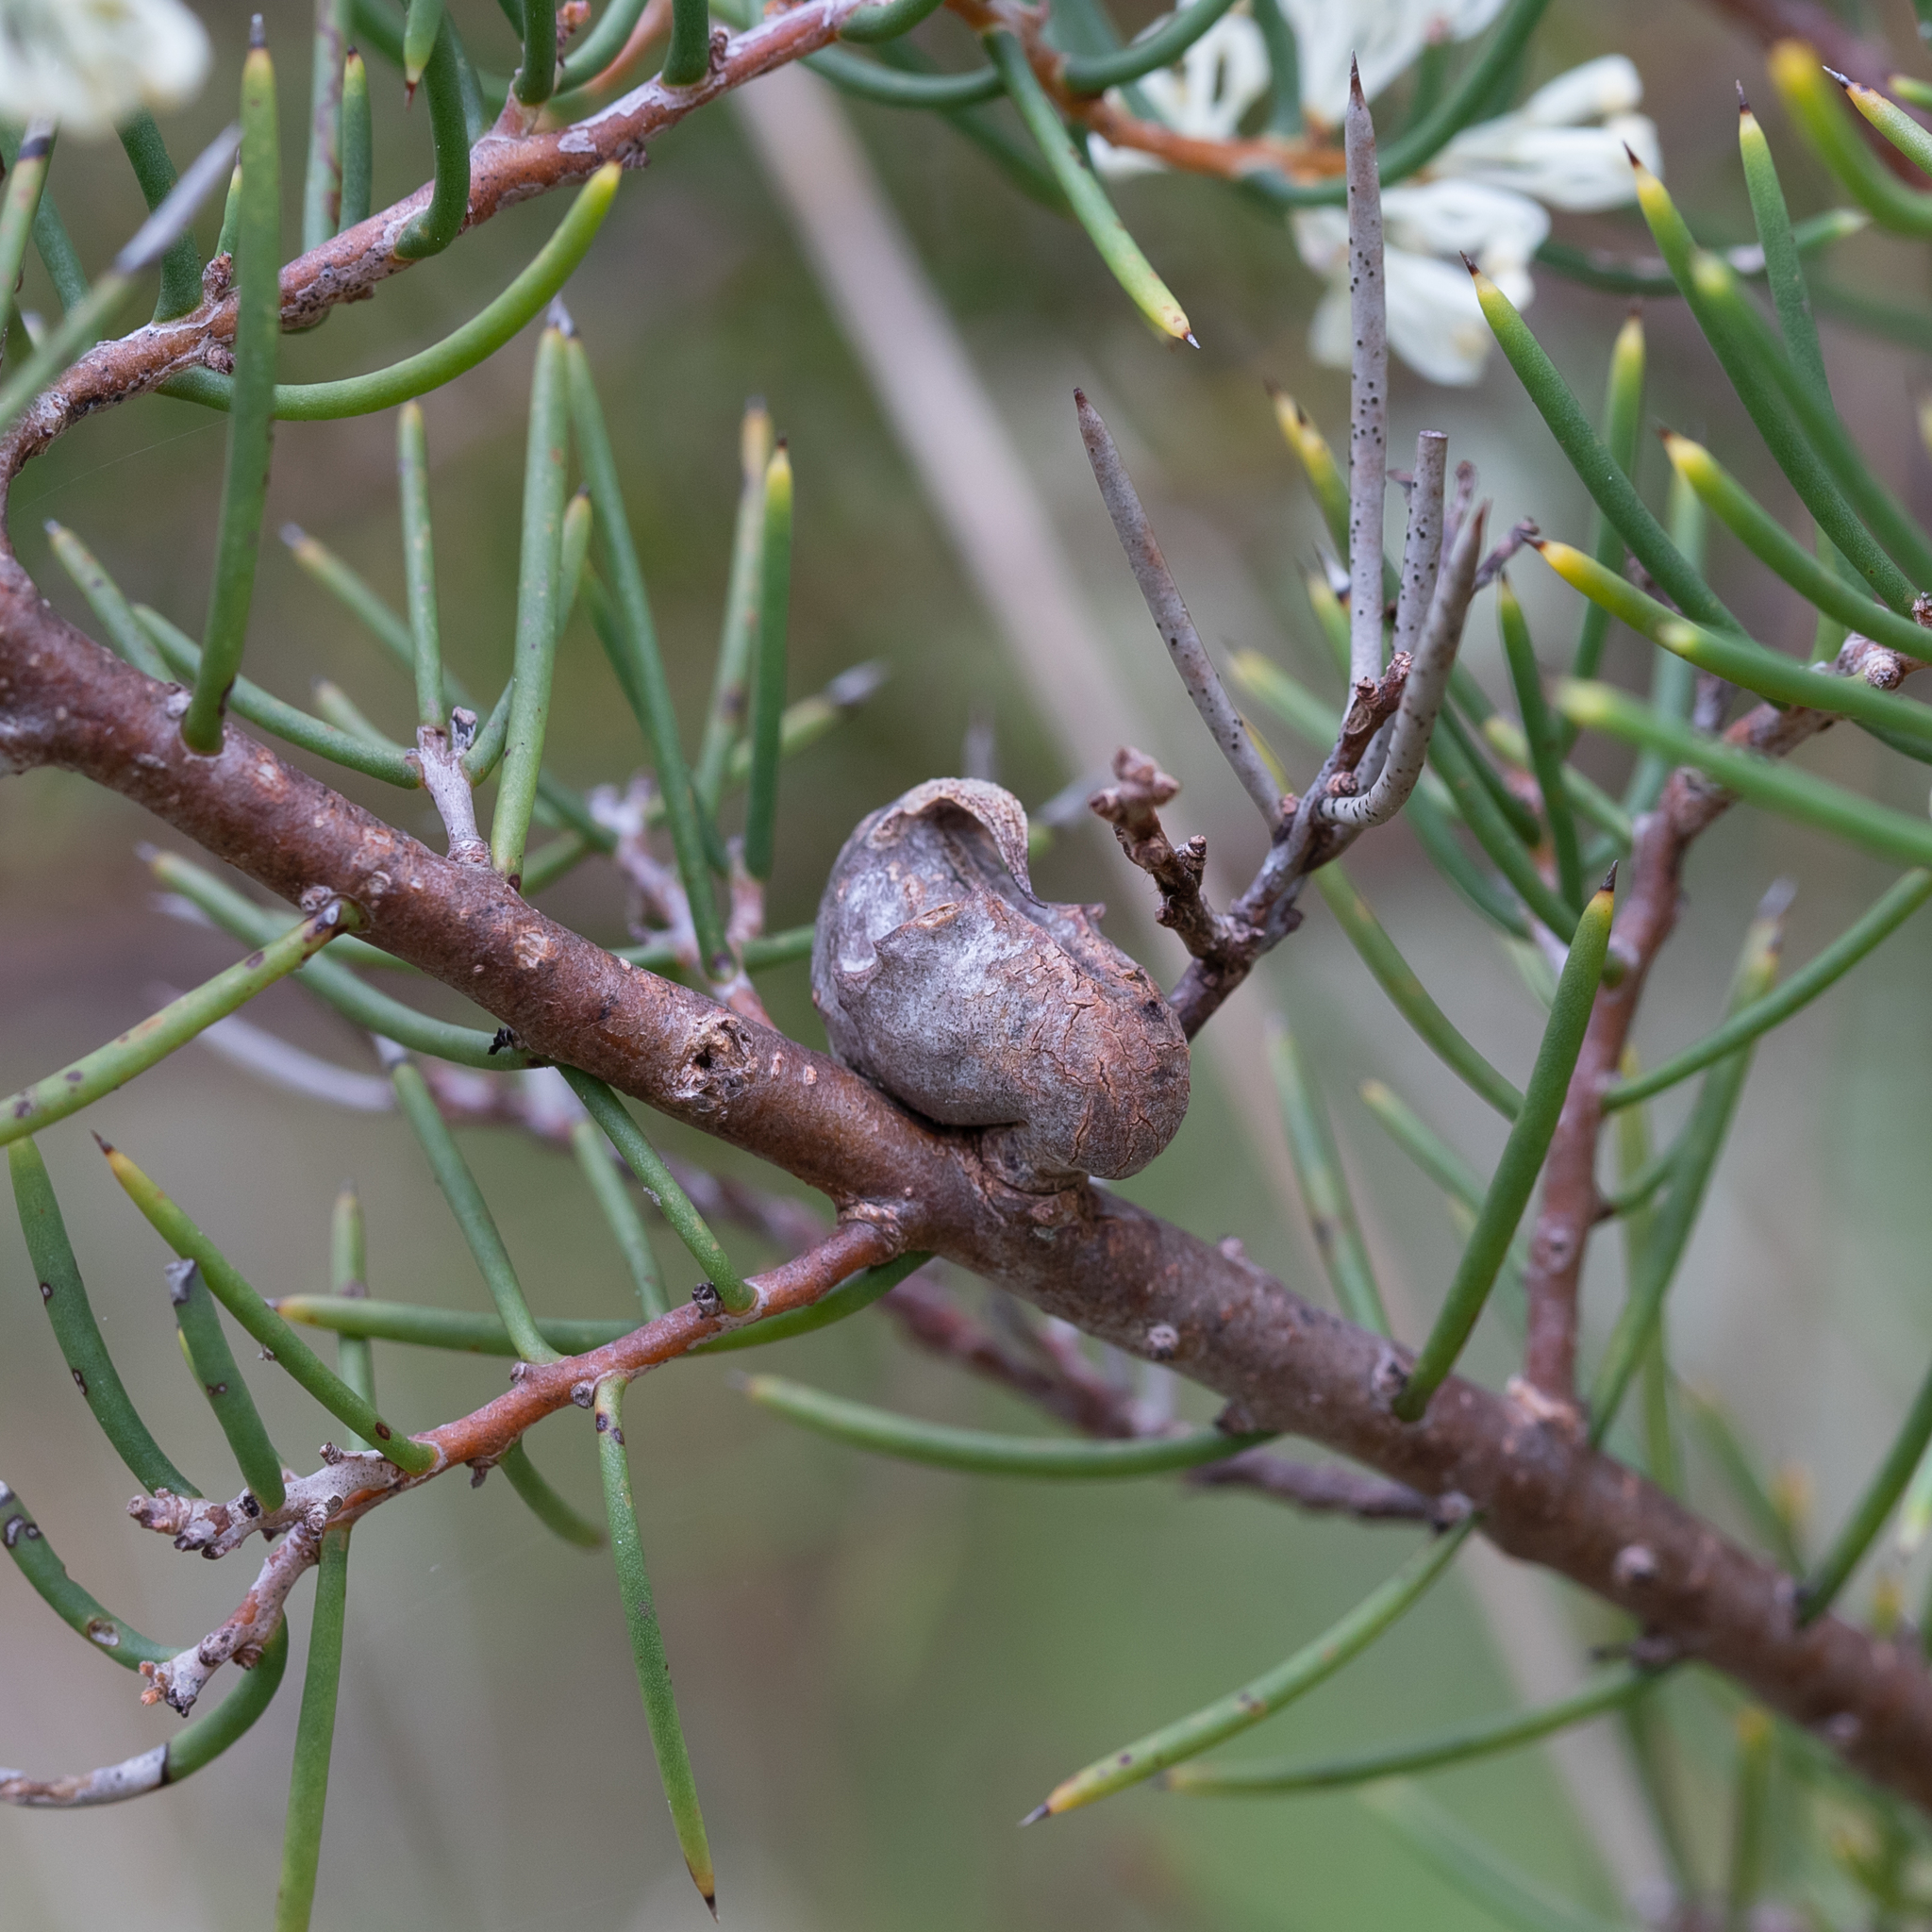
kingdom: Plantae
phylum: Tracheophyta
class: Magnoliopsida
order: Proteales
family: Proteaceae
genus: Hakea
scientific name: Hakea rugosa
